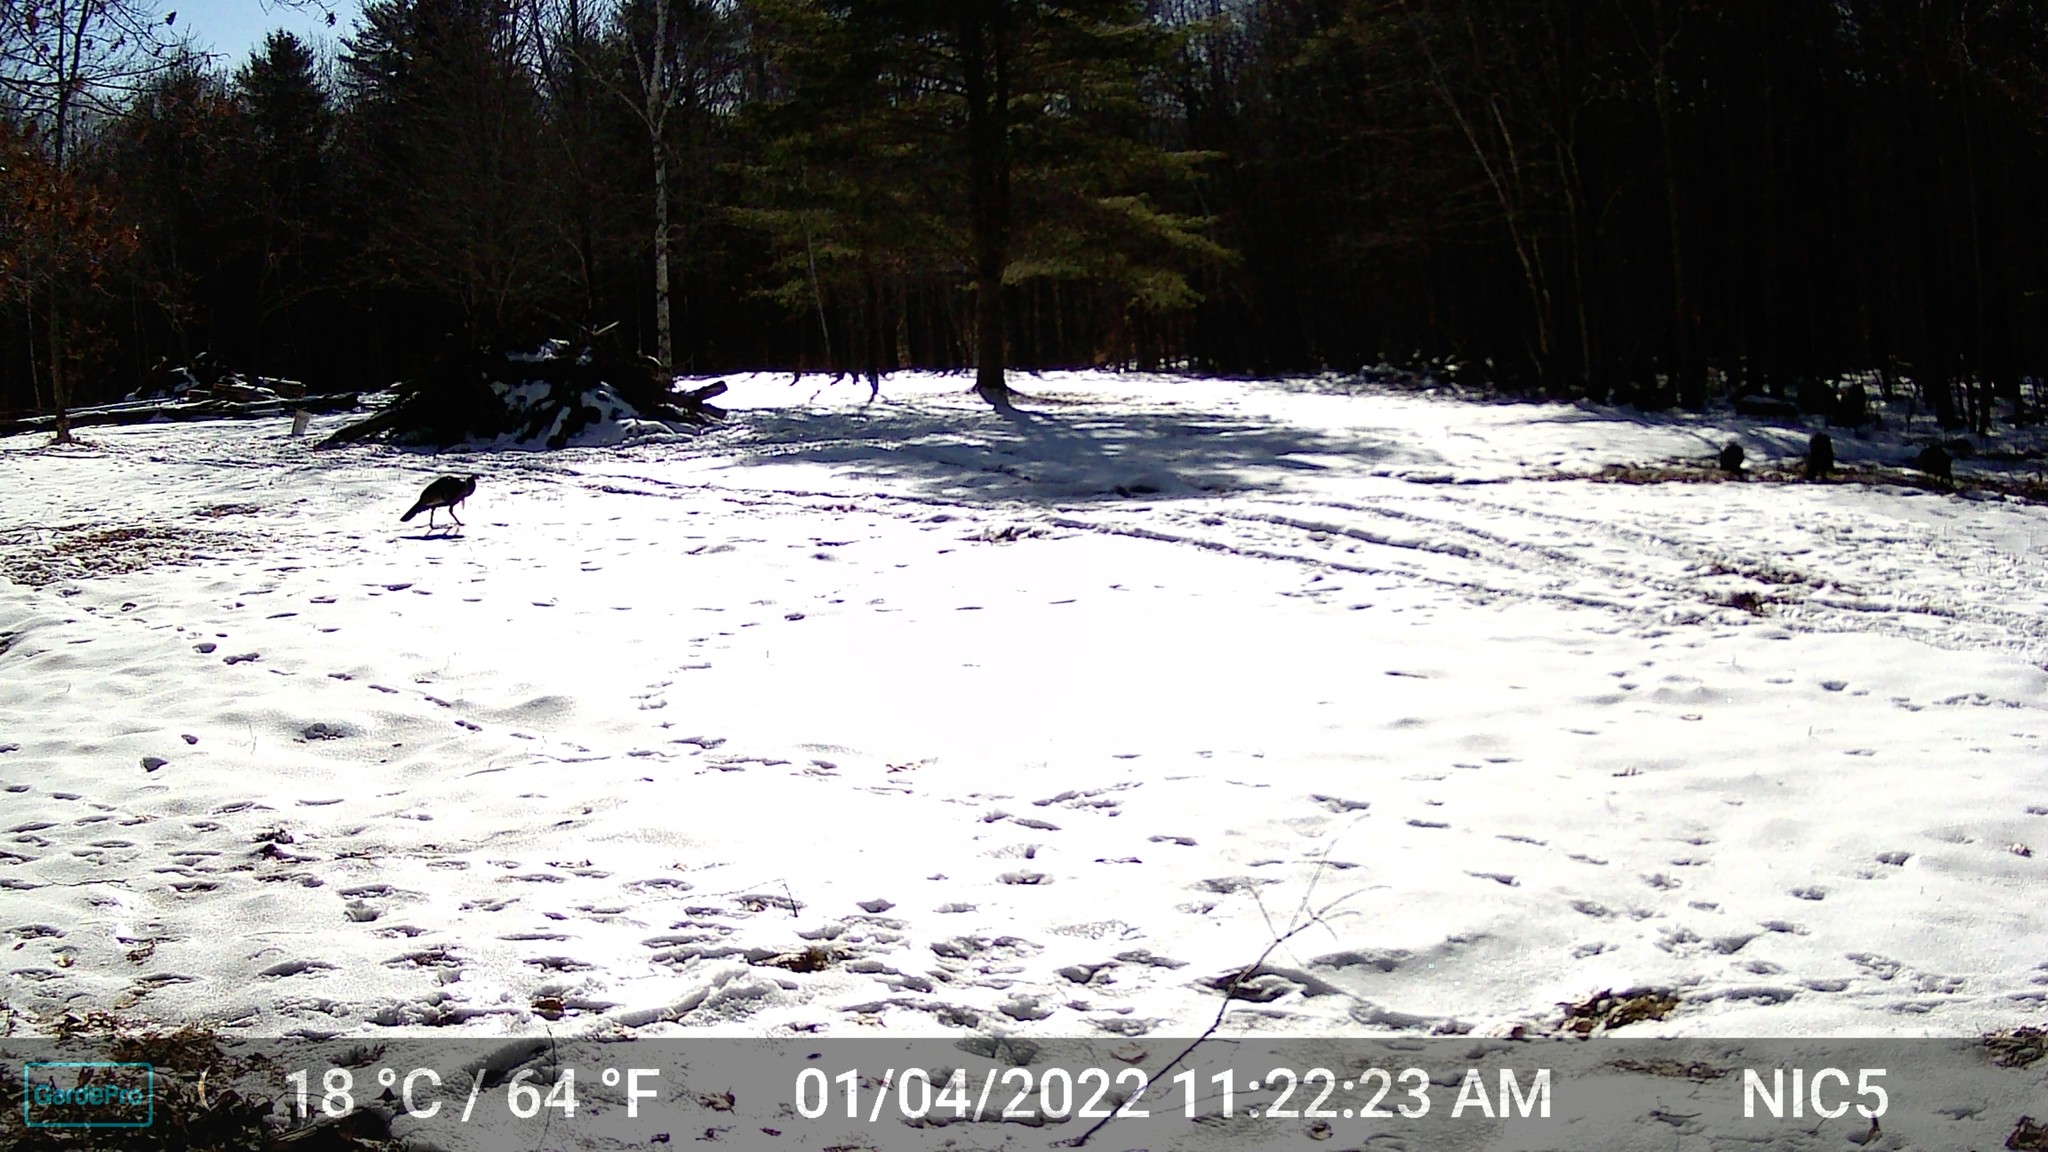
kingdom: Animalia
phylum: Chordata
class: Aves
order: Galliformes
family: Phasianidae
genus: Meleagris
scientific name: Meleagris gallopavo
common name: Wild turkey
